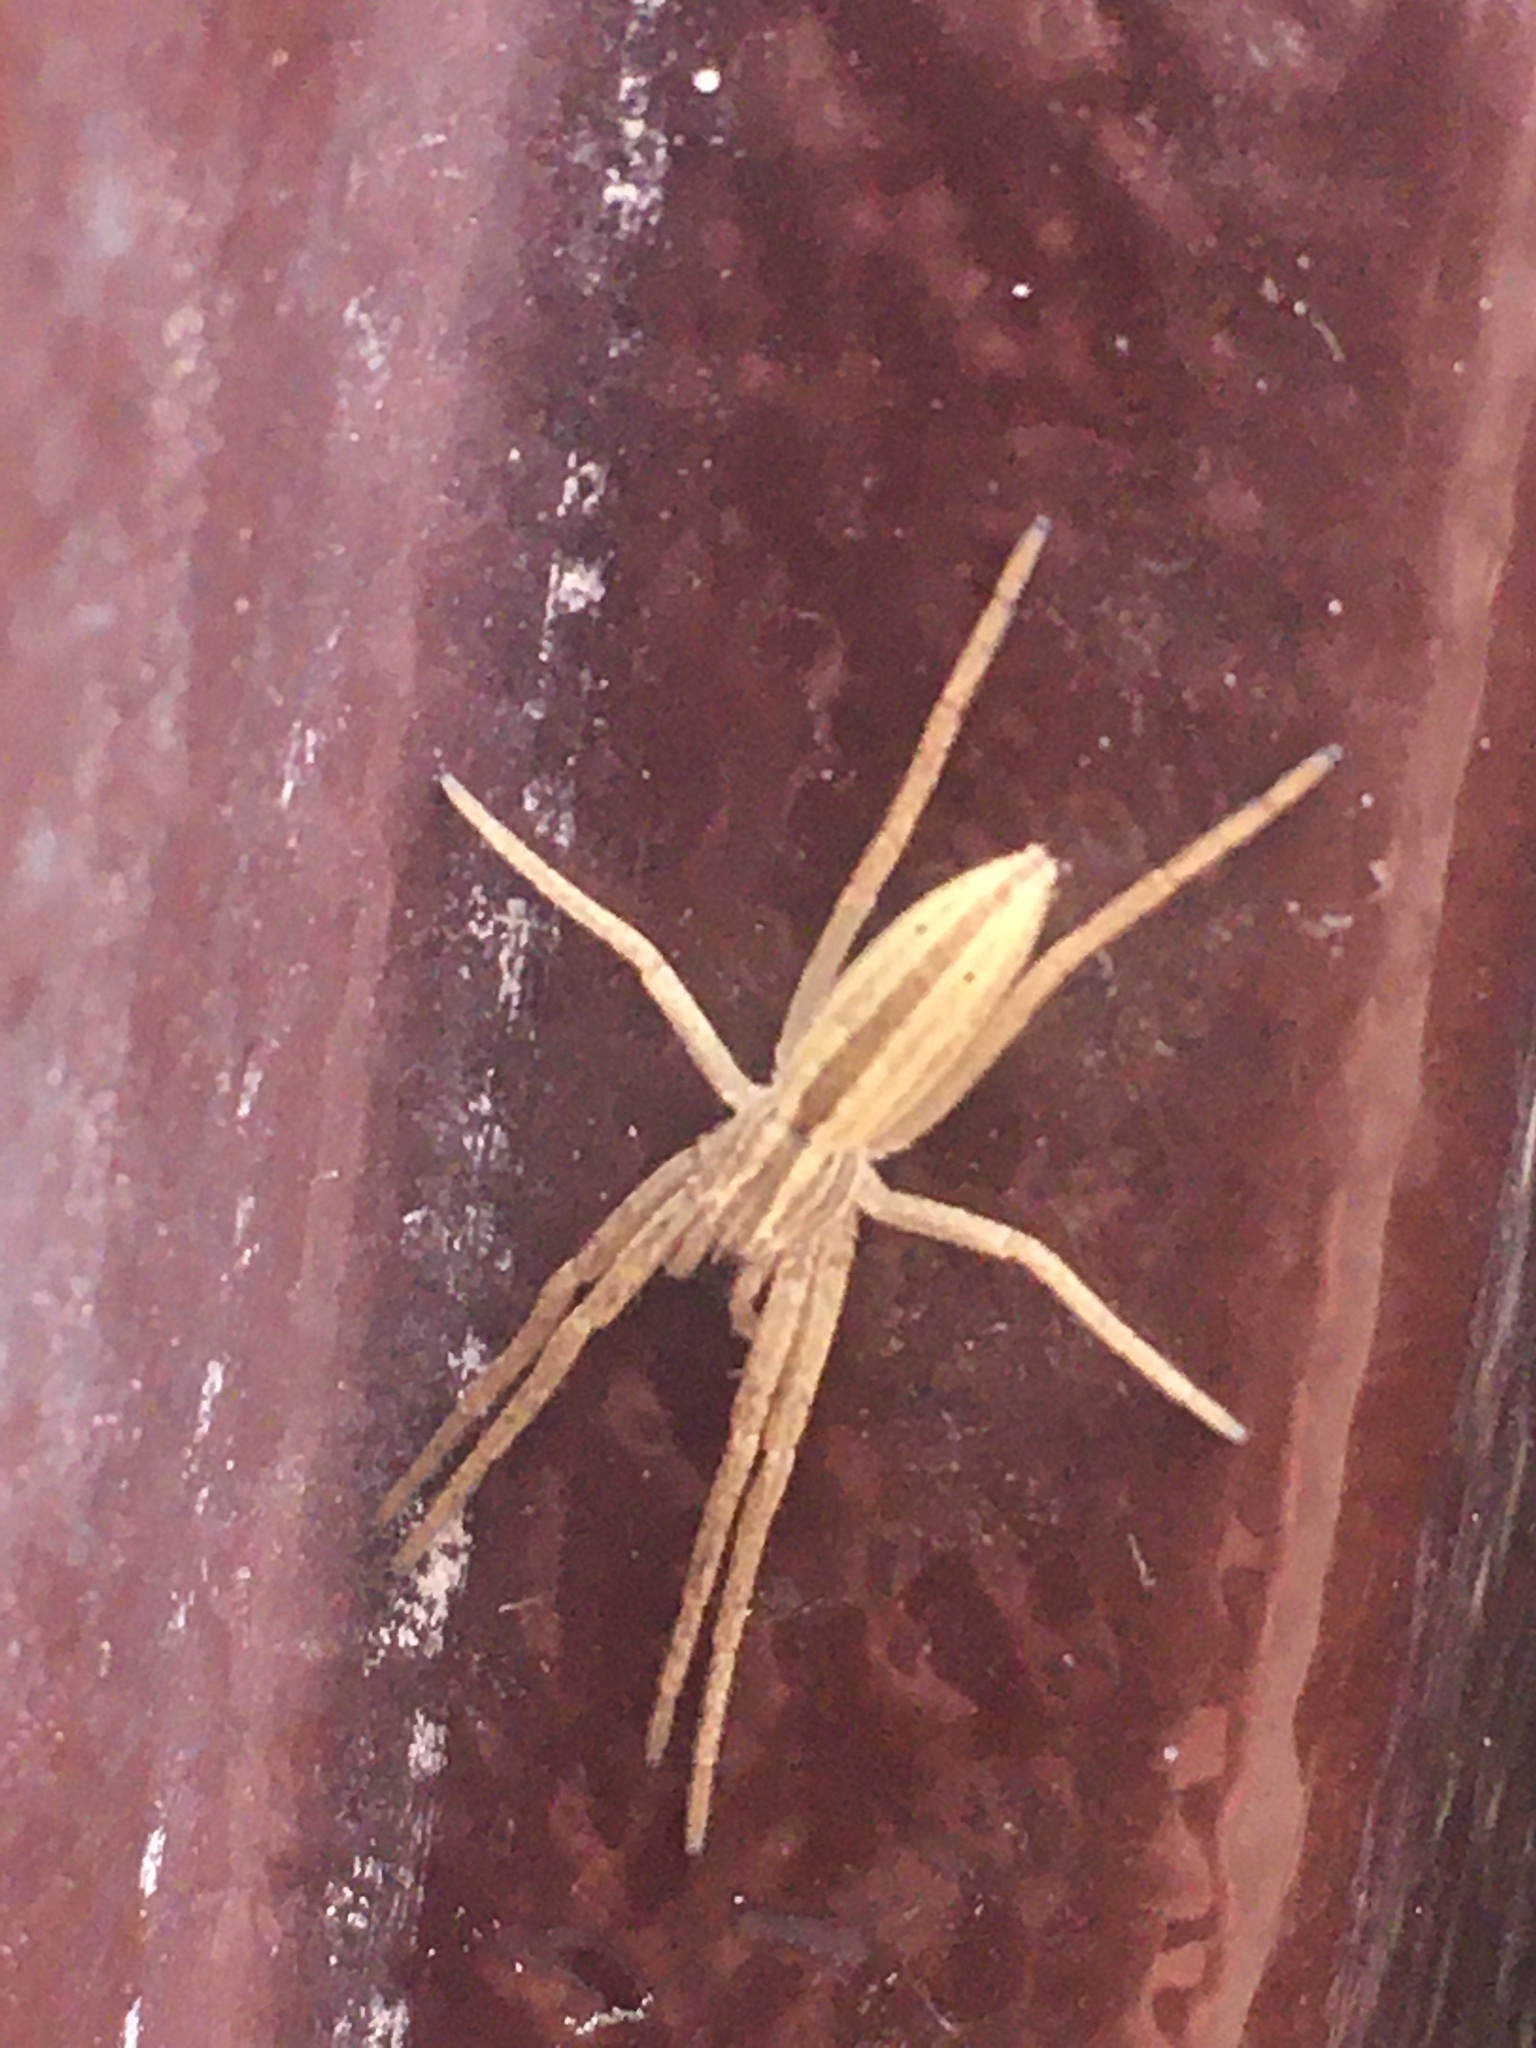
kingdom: Animalia
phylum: Arthropoda
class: Arachnida
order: Araneae
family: Philodromidae
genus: Tibellus
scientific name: Tibellus
